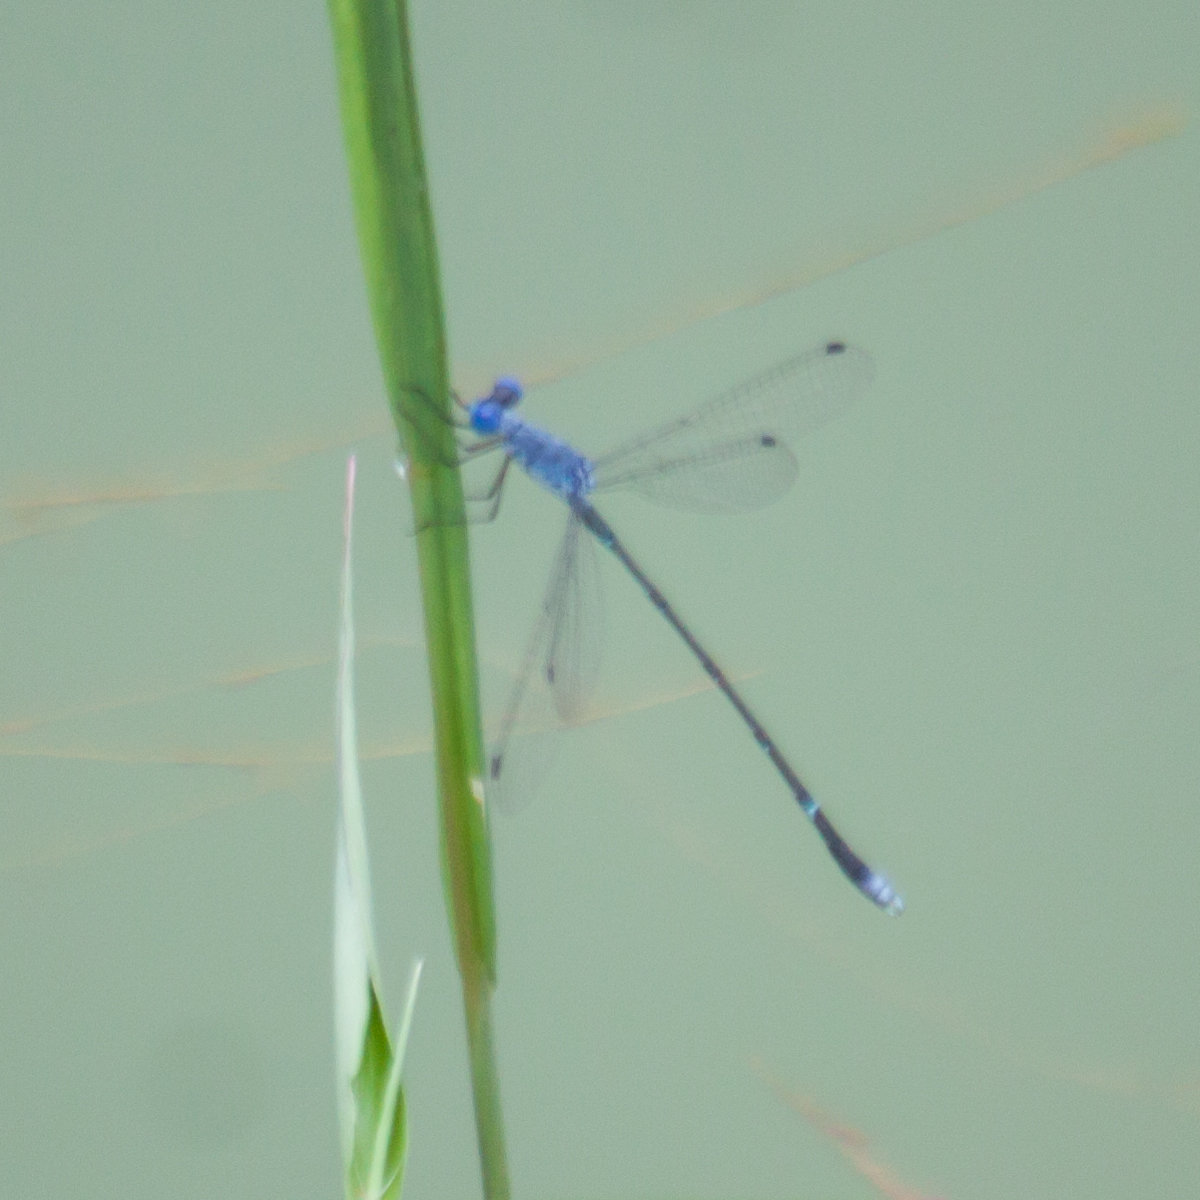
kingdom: Animalia
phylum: Arthropoda
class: Insecta
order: Odonata
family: Lestidae
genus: Lestes
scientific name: Lestes praemorsus
